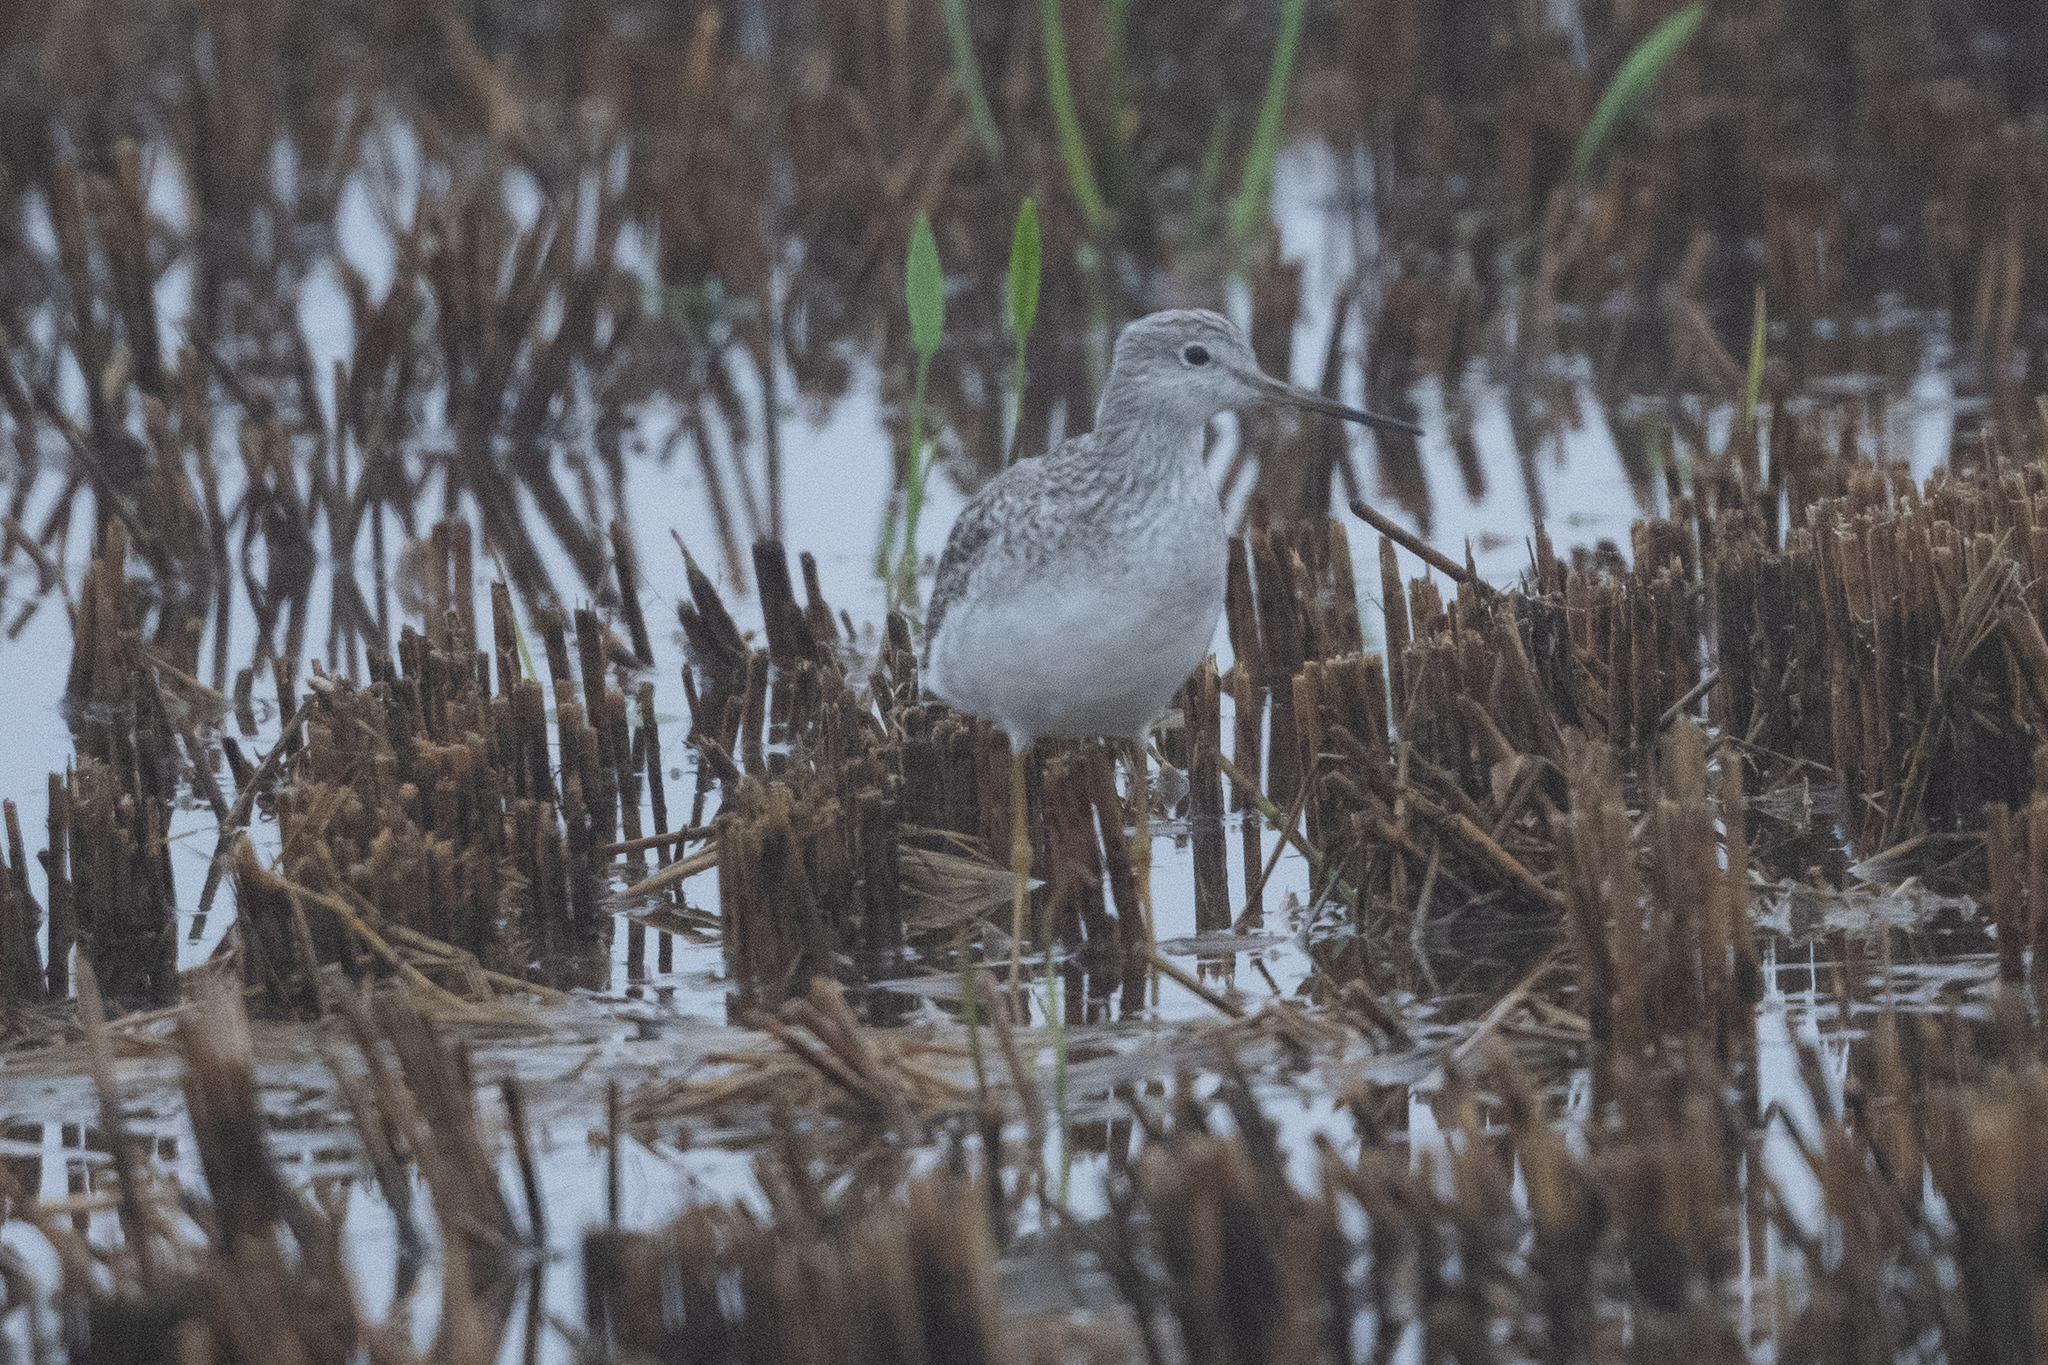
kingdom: Animalia
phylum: Chordata
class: Aves
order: Charadriiformes
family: Scolopacidae
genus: Tringa
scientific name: Tringa melanoleuca
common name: Greater yellowlegs
